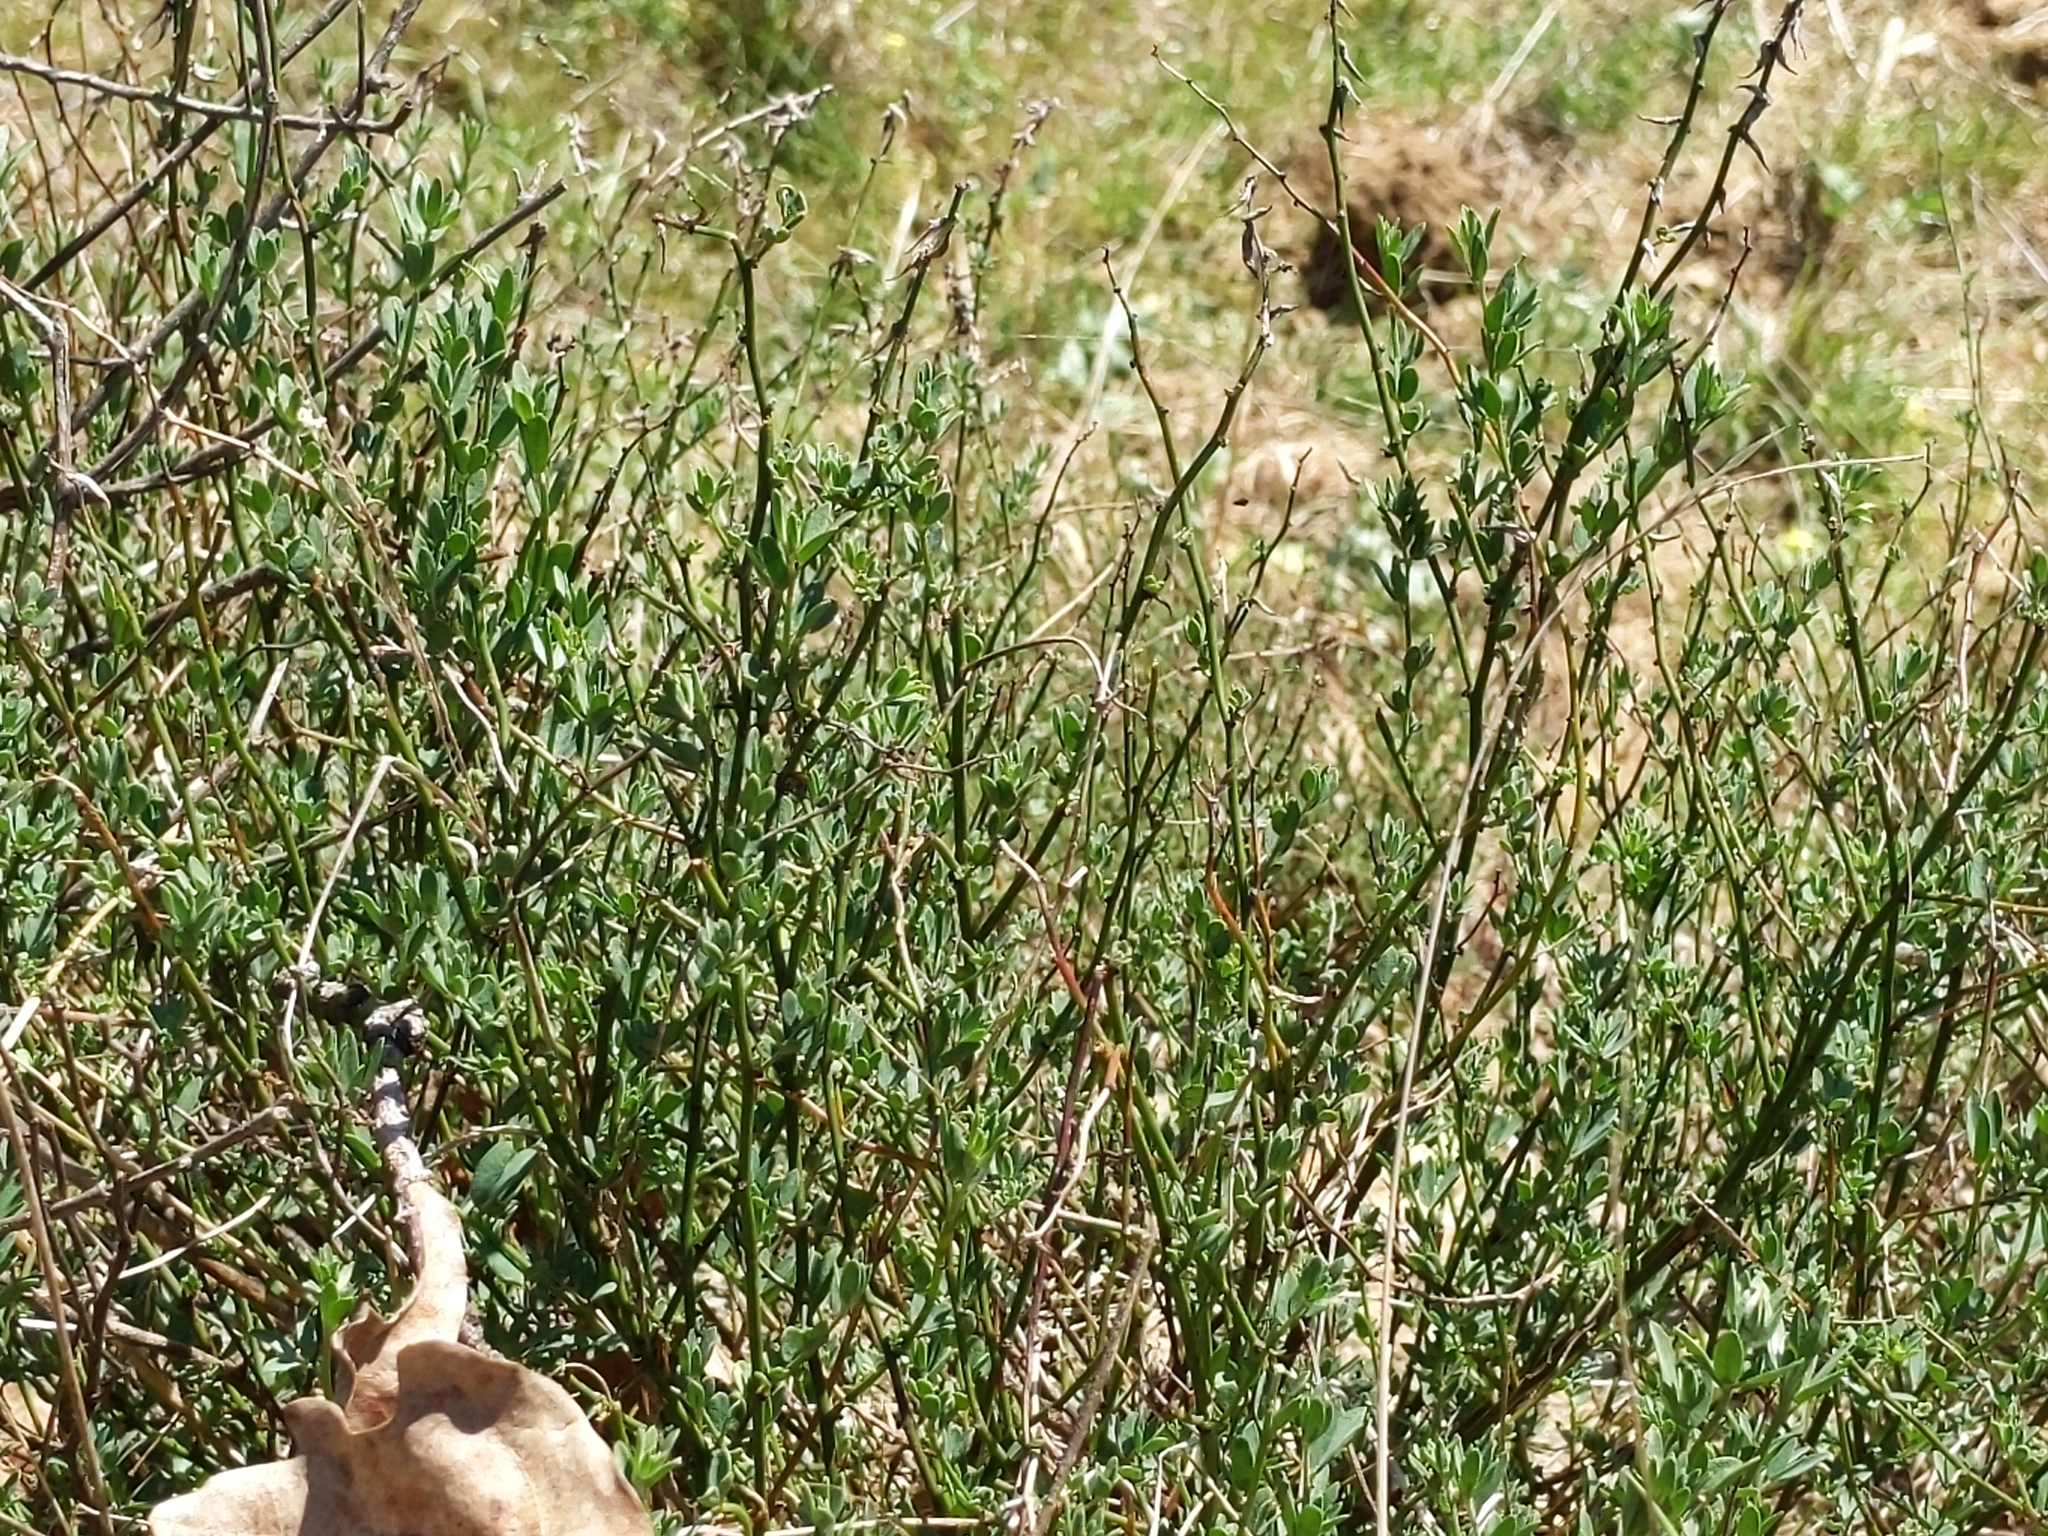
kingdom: Plantae
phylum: Tracheophyta
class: Magnoliopsida
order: Fabales
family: Fabaceae
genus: Acmispon
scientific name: Acmispon glaber
